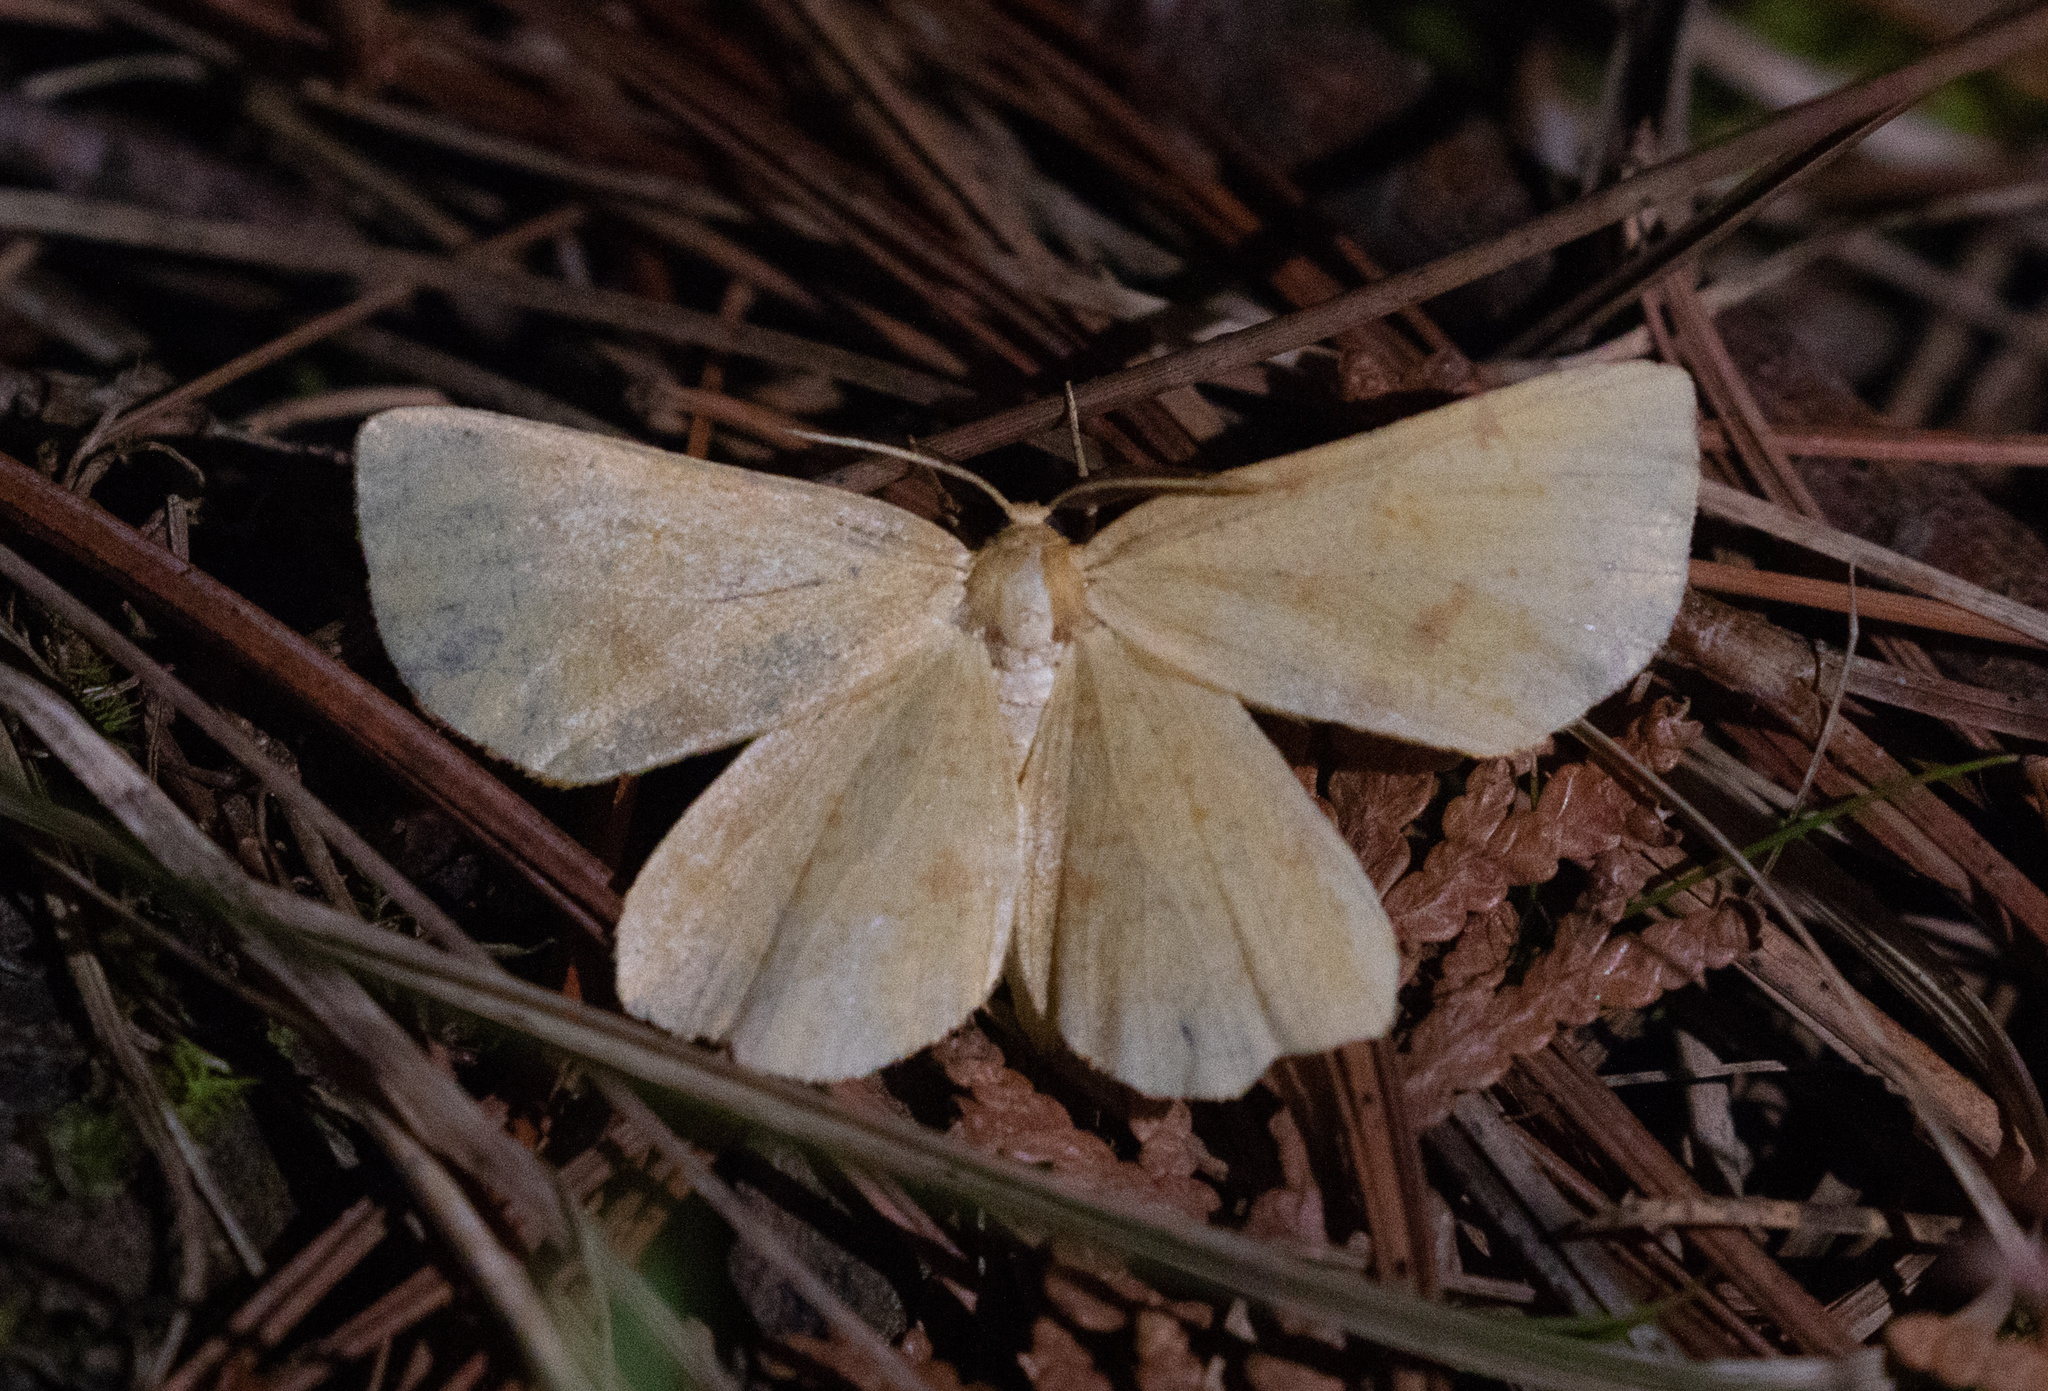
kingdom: Animalia
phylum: Arthropoda
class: Insecta
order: Lepidoptera
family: Geometridae
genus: Xanthotype
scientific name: Xanthotype
